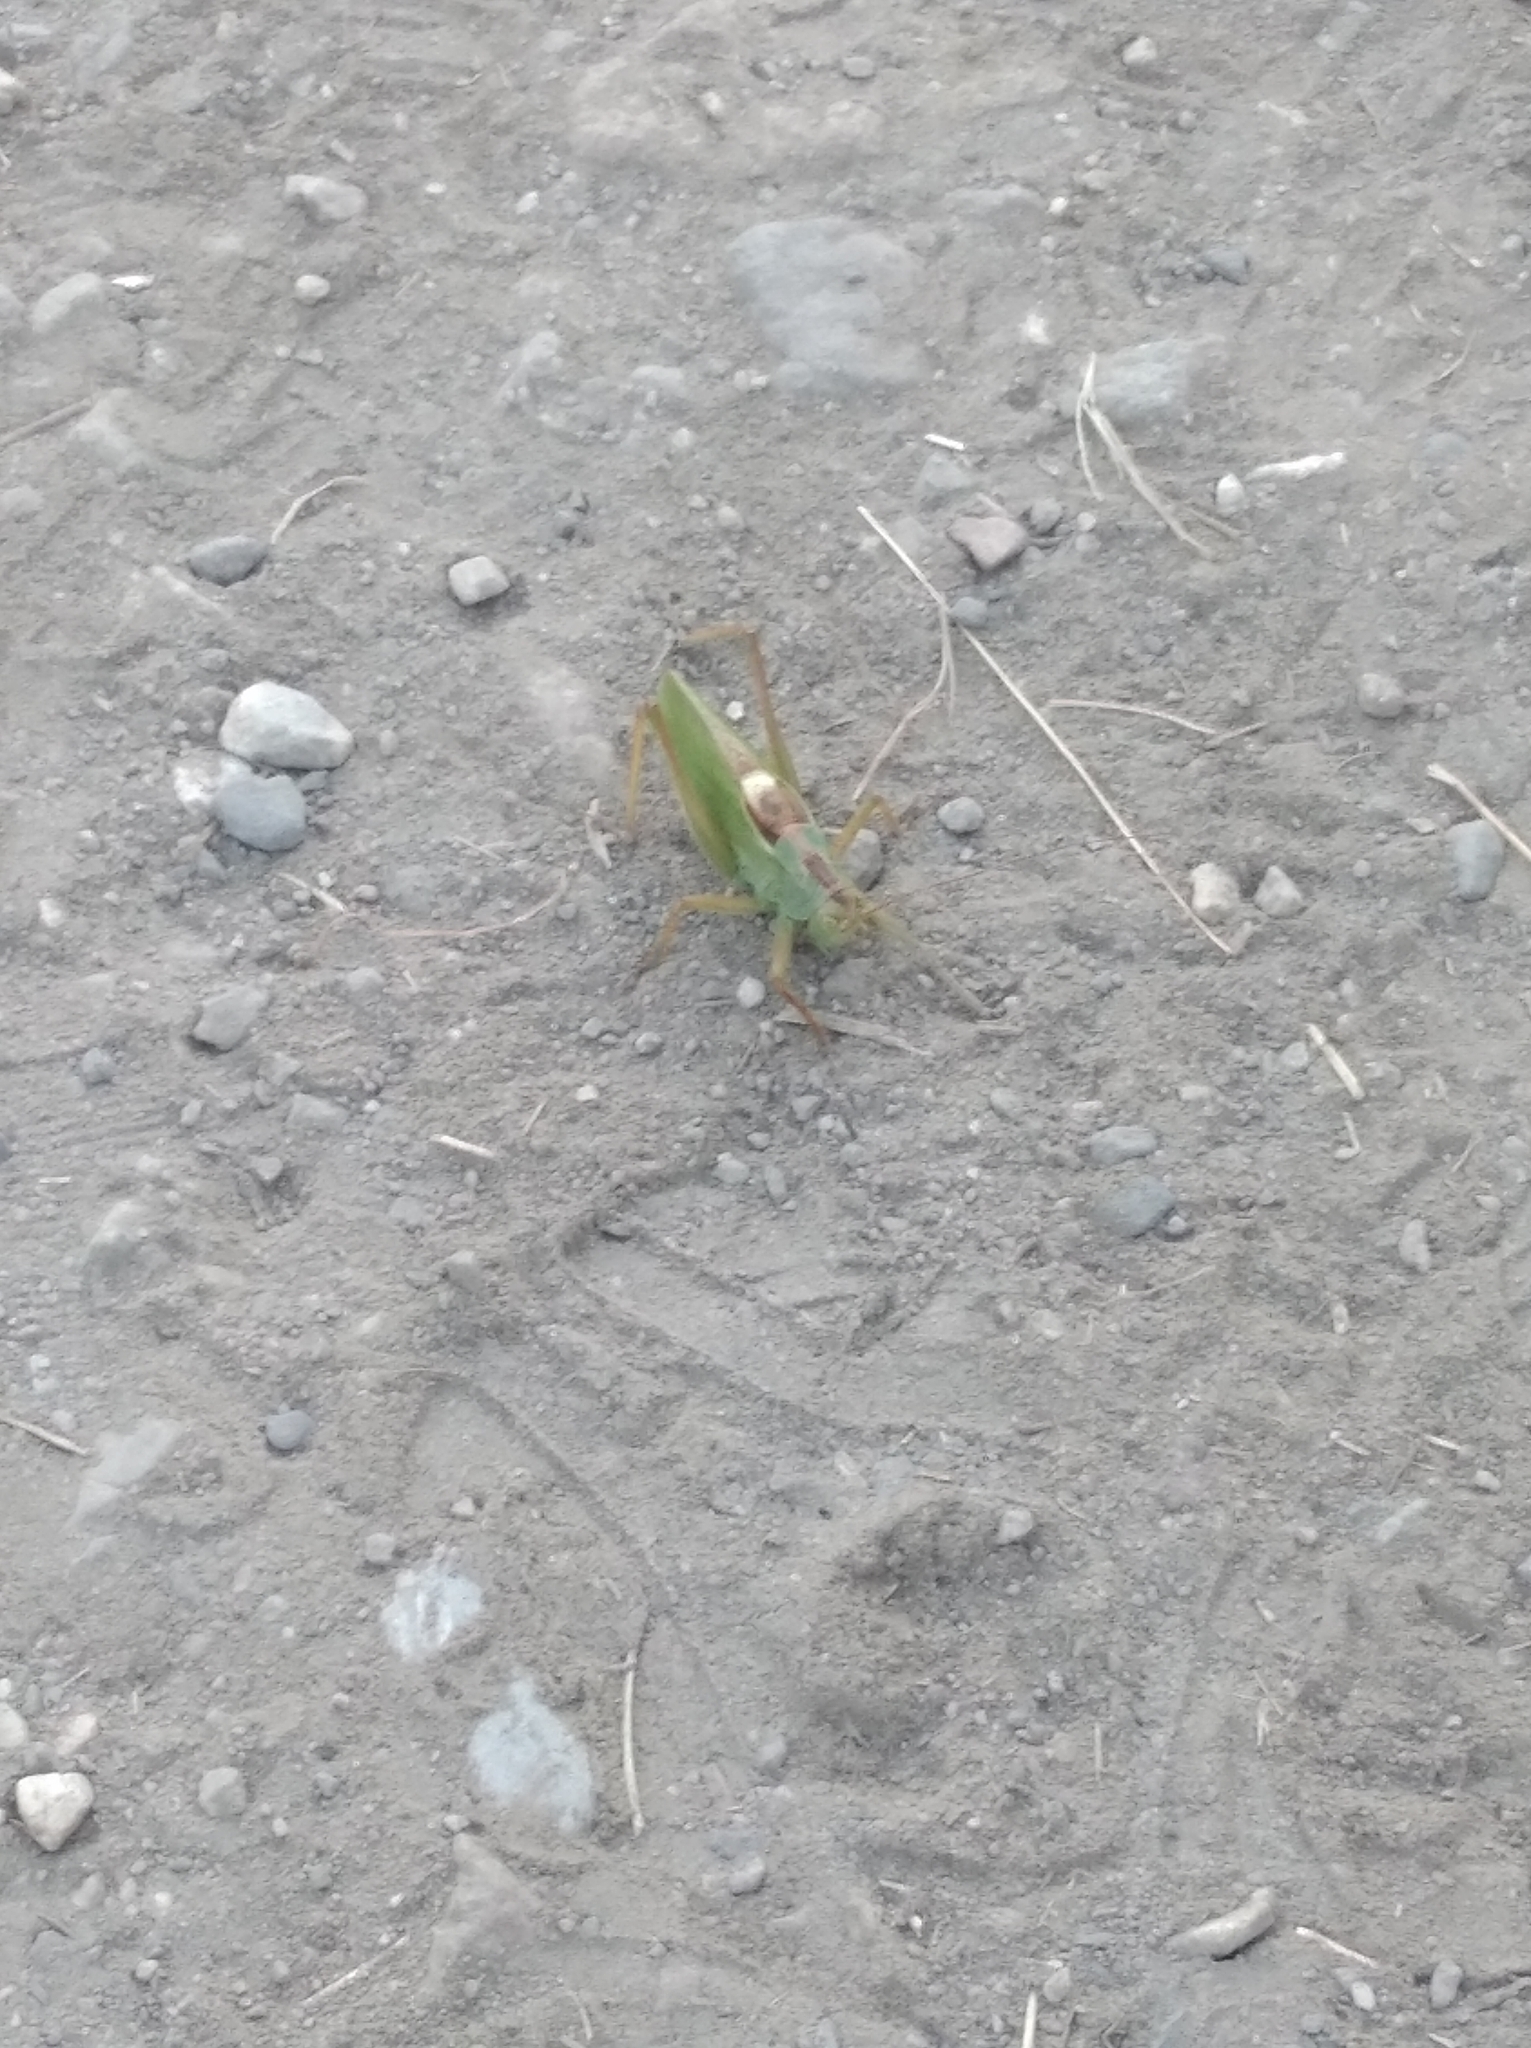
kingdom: Animalia
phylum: Arthropoda
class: Insecta
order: Orthoptera
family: Tettigoniidae
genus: Tettigonia
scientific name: Tettigonia cantans
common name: Upland green bush-cricket
